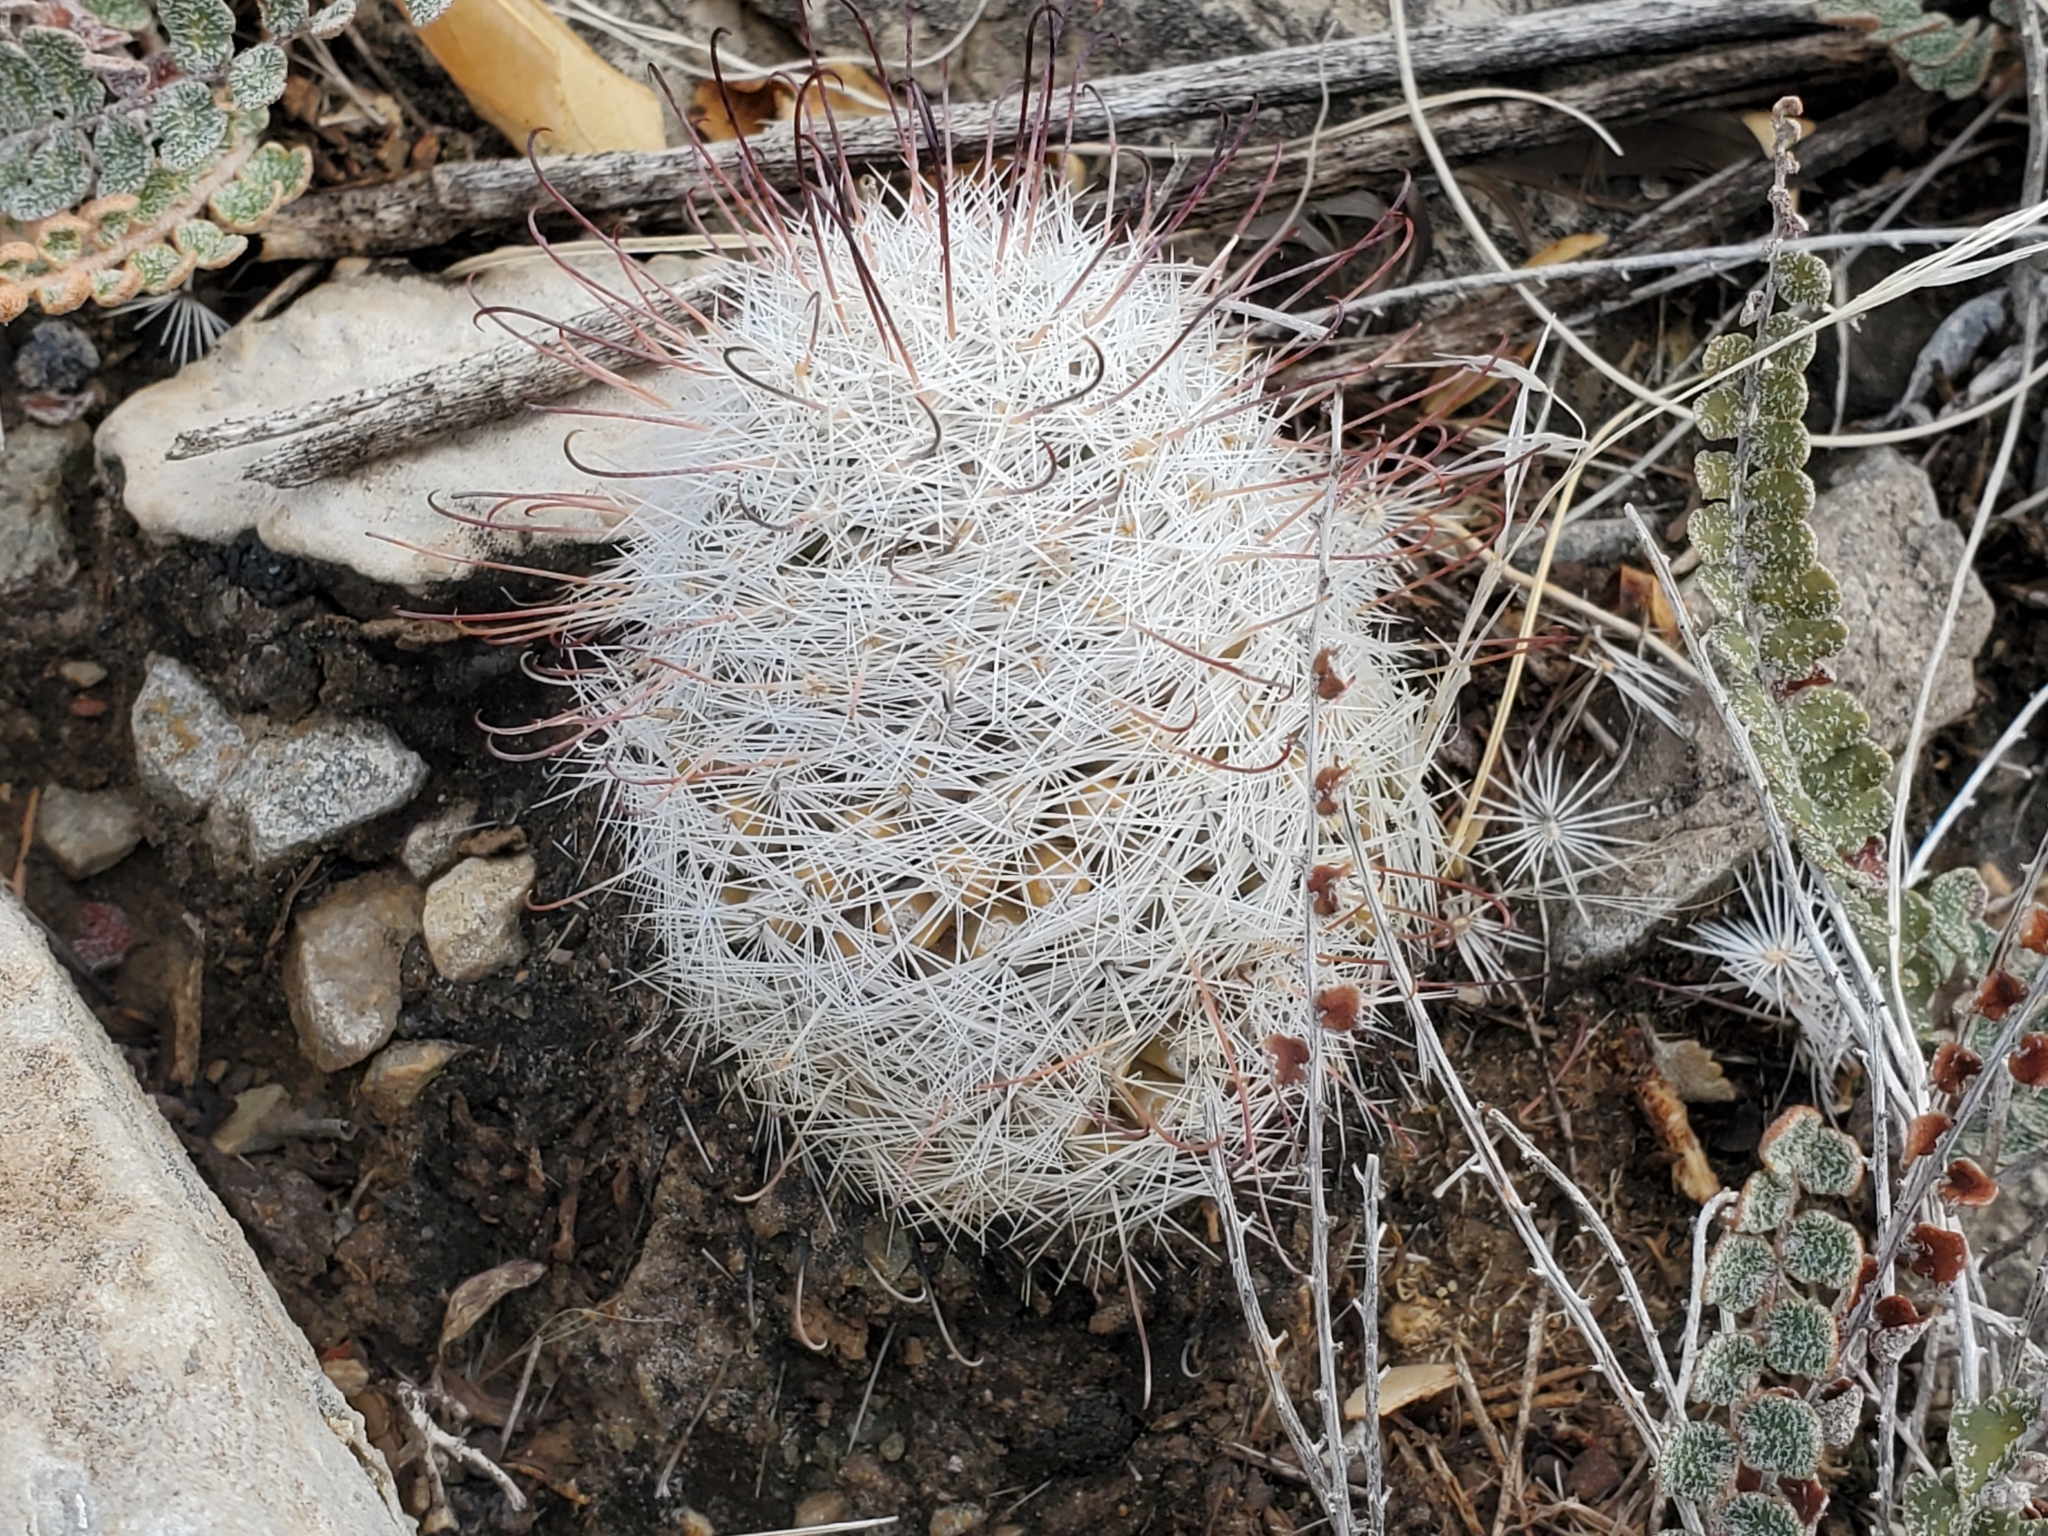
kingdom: Plantae
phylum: Tracheophyta
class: Magnoliopsida
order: Caryophyllales
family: Cactaceae
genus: Cochemiea
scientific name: Cochemiea grahamii
